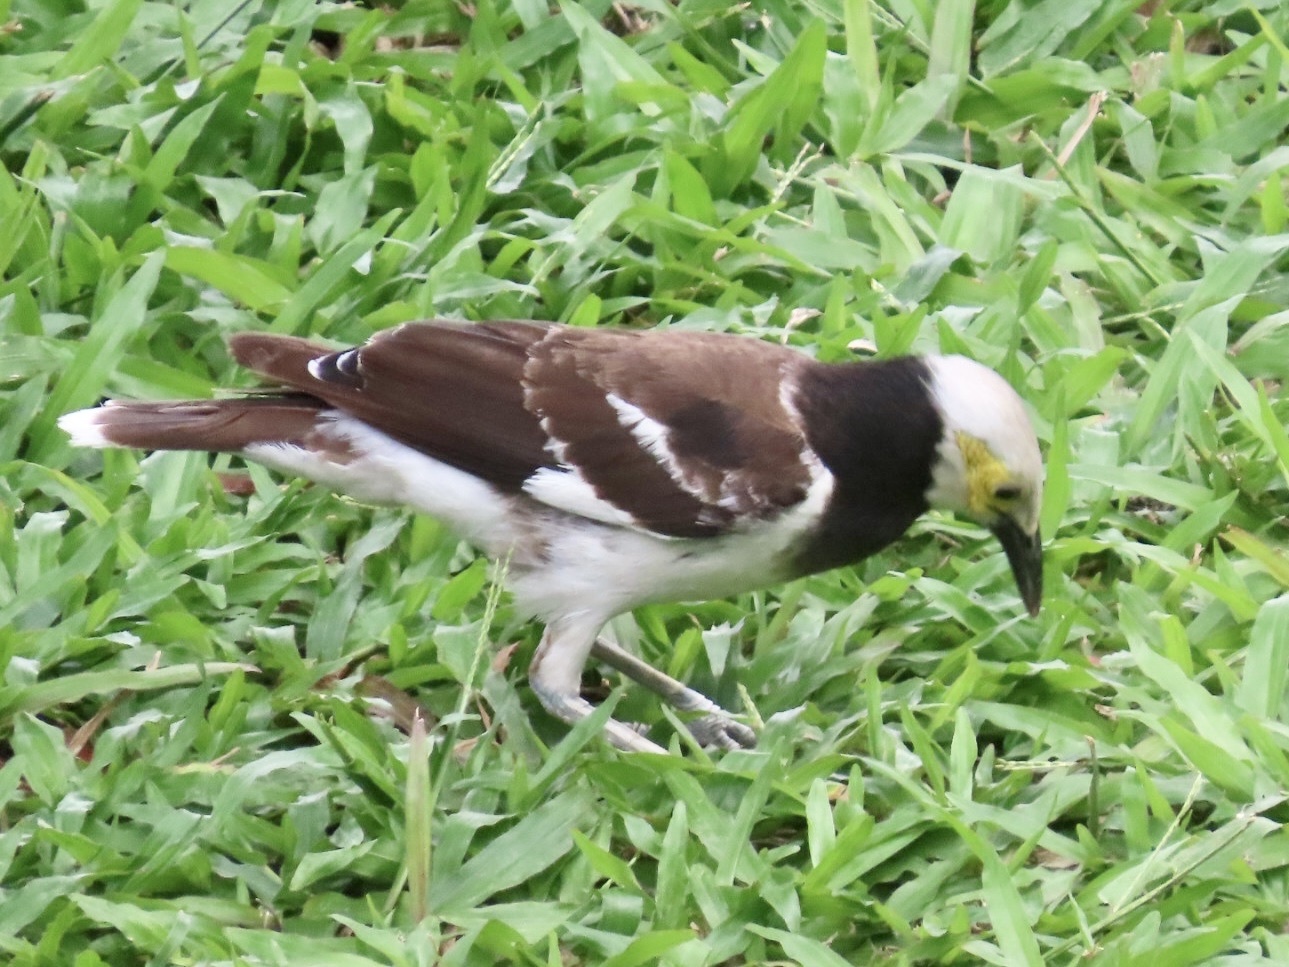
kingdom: Animalia
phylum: Chordata
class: Aves
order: Passeriformes
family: Sturnidae
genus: Gracupica
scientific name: Gracupica nigricollis
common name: Black-collared starling
